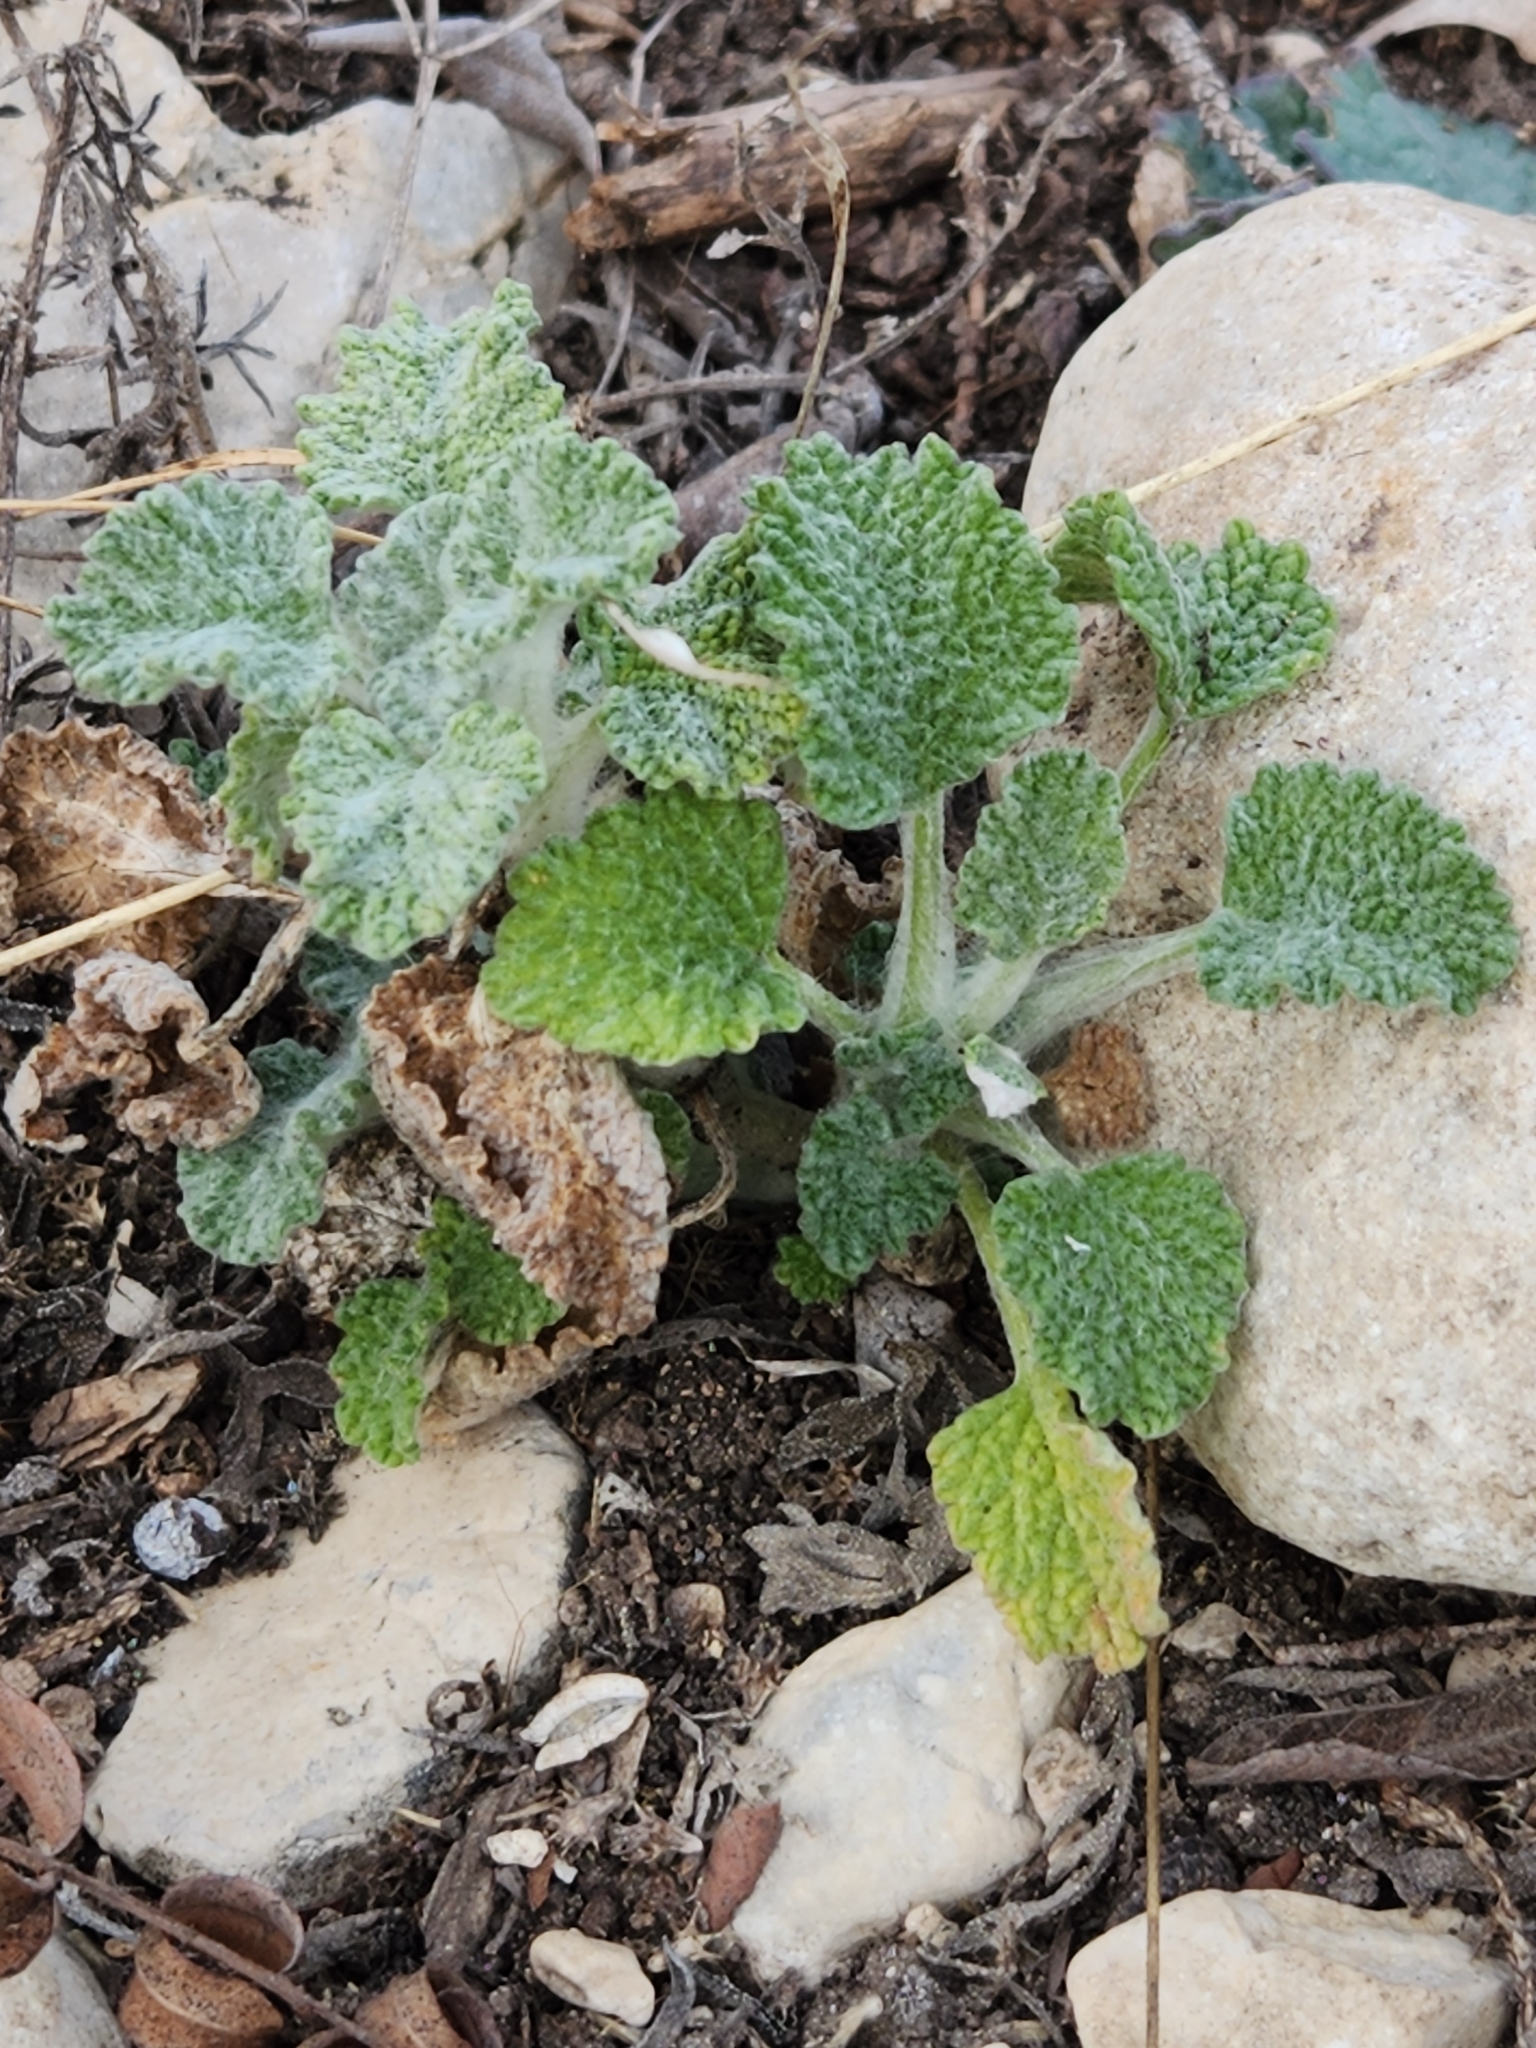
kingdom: Plantae
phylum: Tracheophyta
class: Magnoliopsida
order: Lamiales
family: Lamiaceae
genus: Marrubium
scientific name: Marrubium vulgare
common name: Horehound
